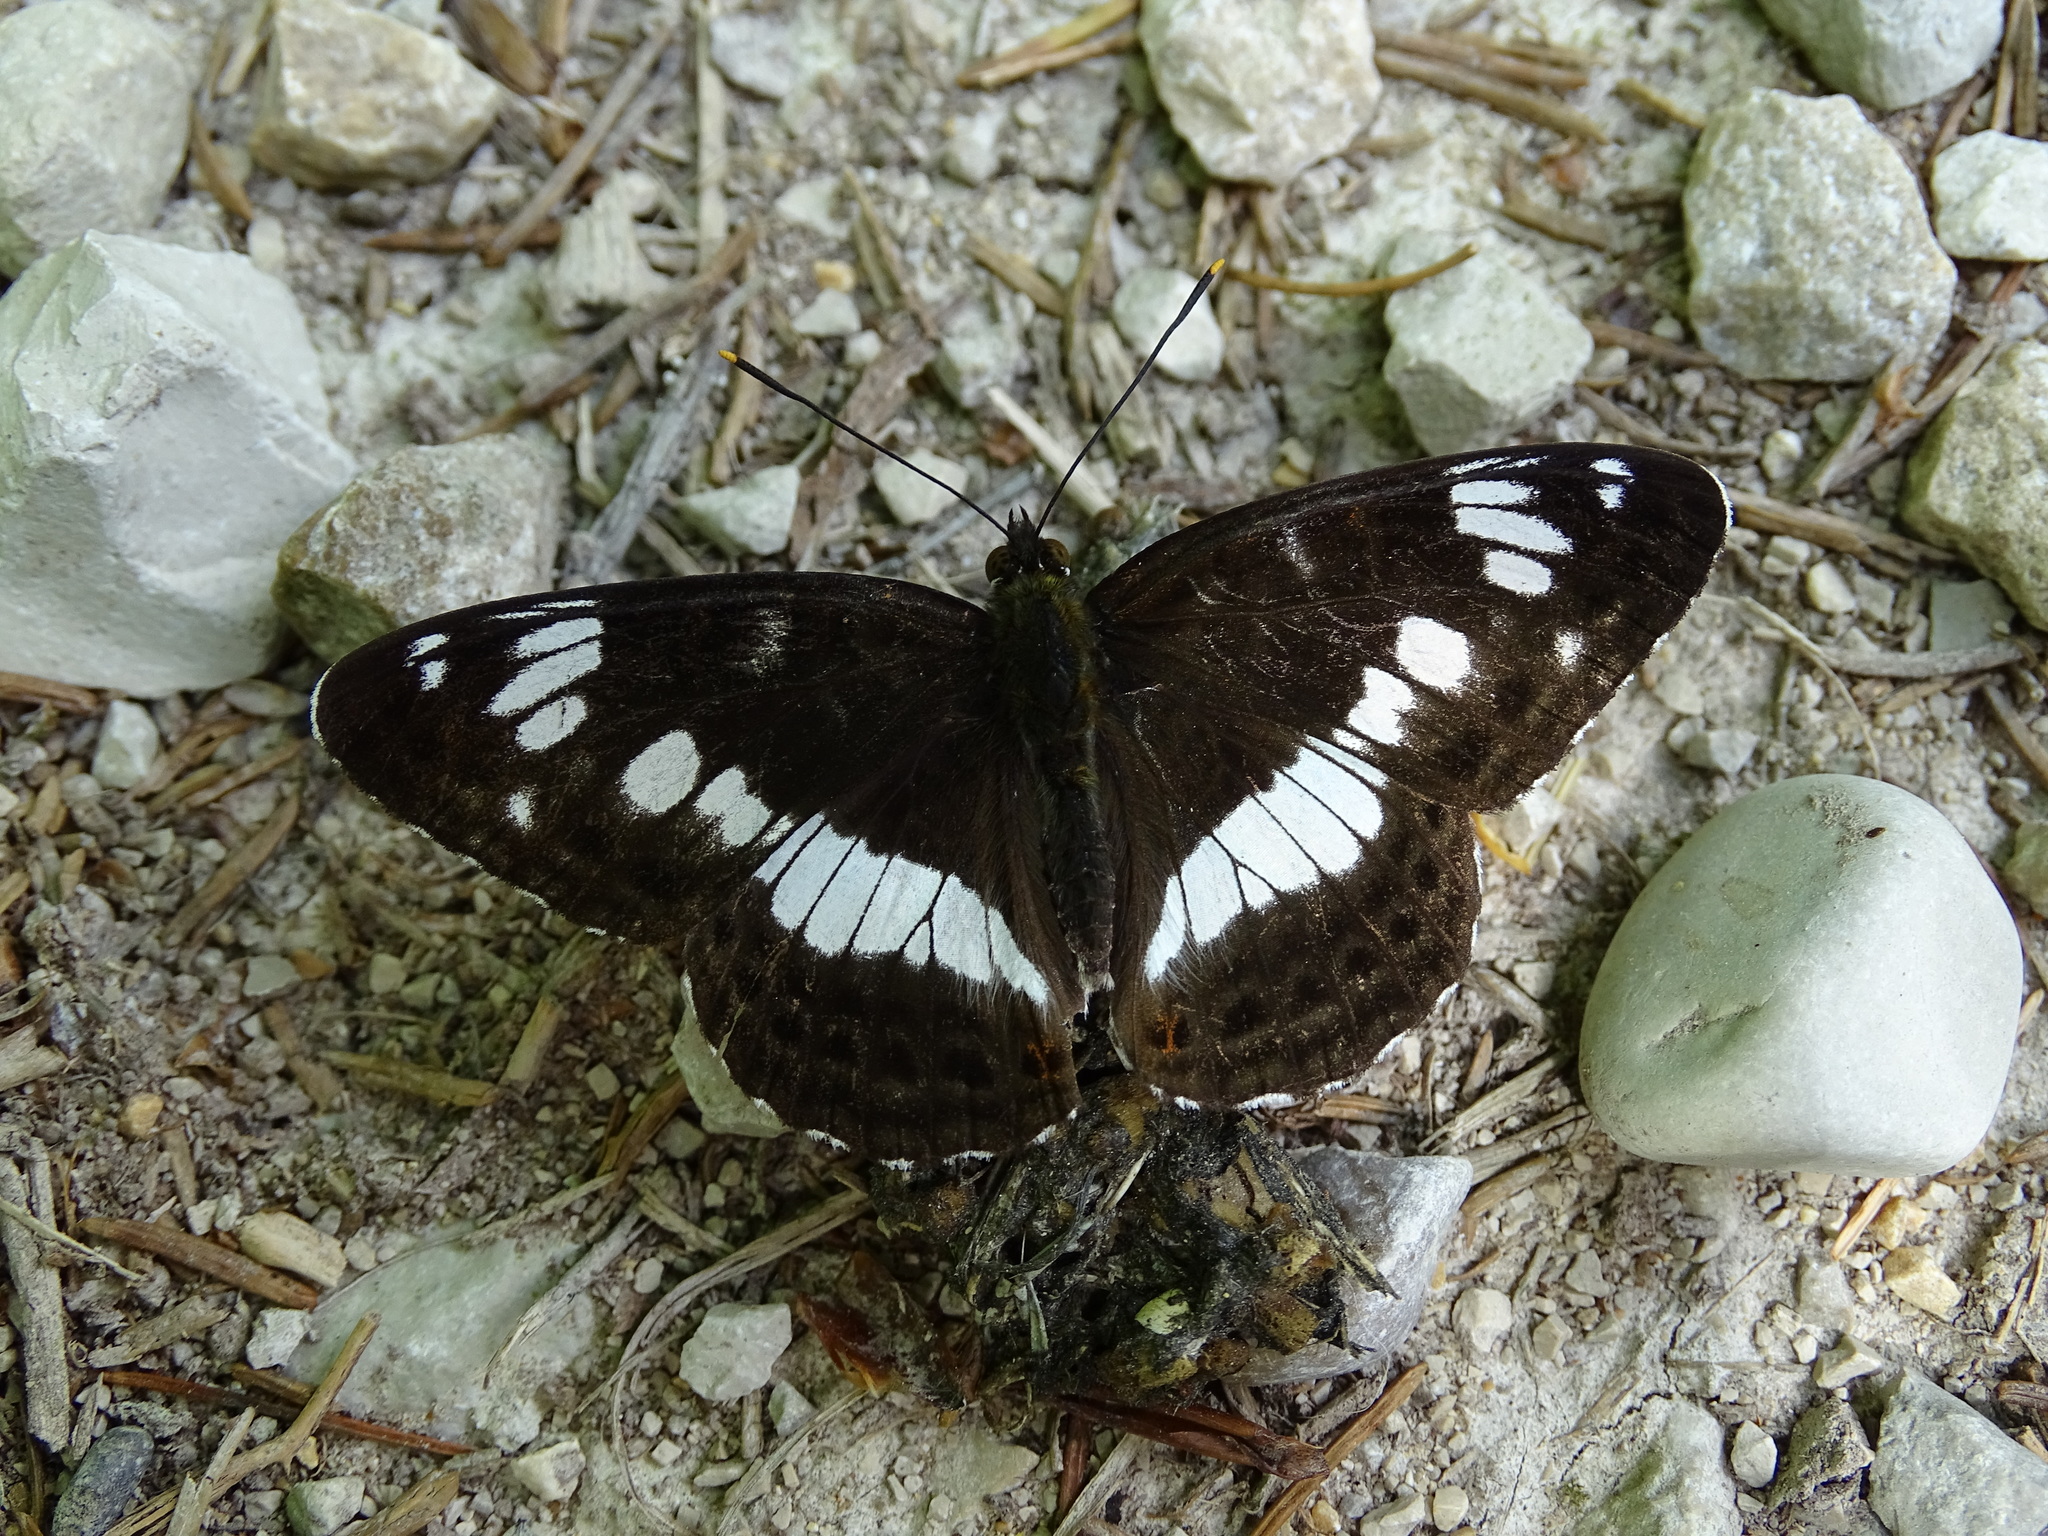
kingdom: Animalia
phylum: Arthropoda
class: Insecta
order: Lepidoptera
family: Nymphalidae
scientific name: Nymphalidae
